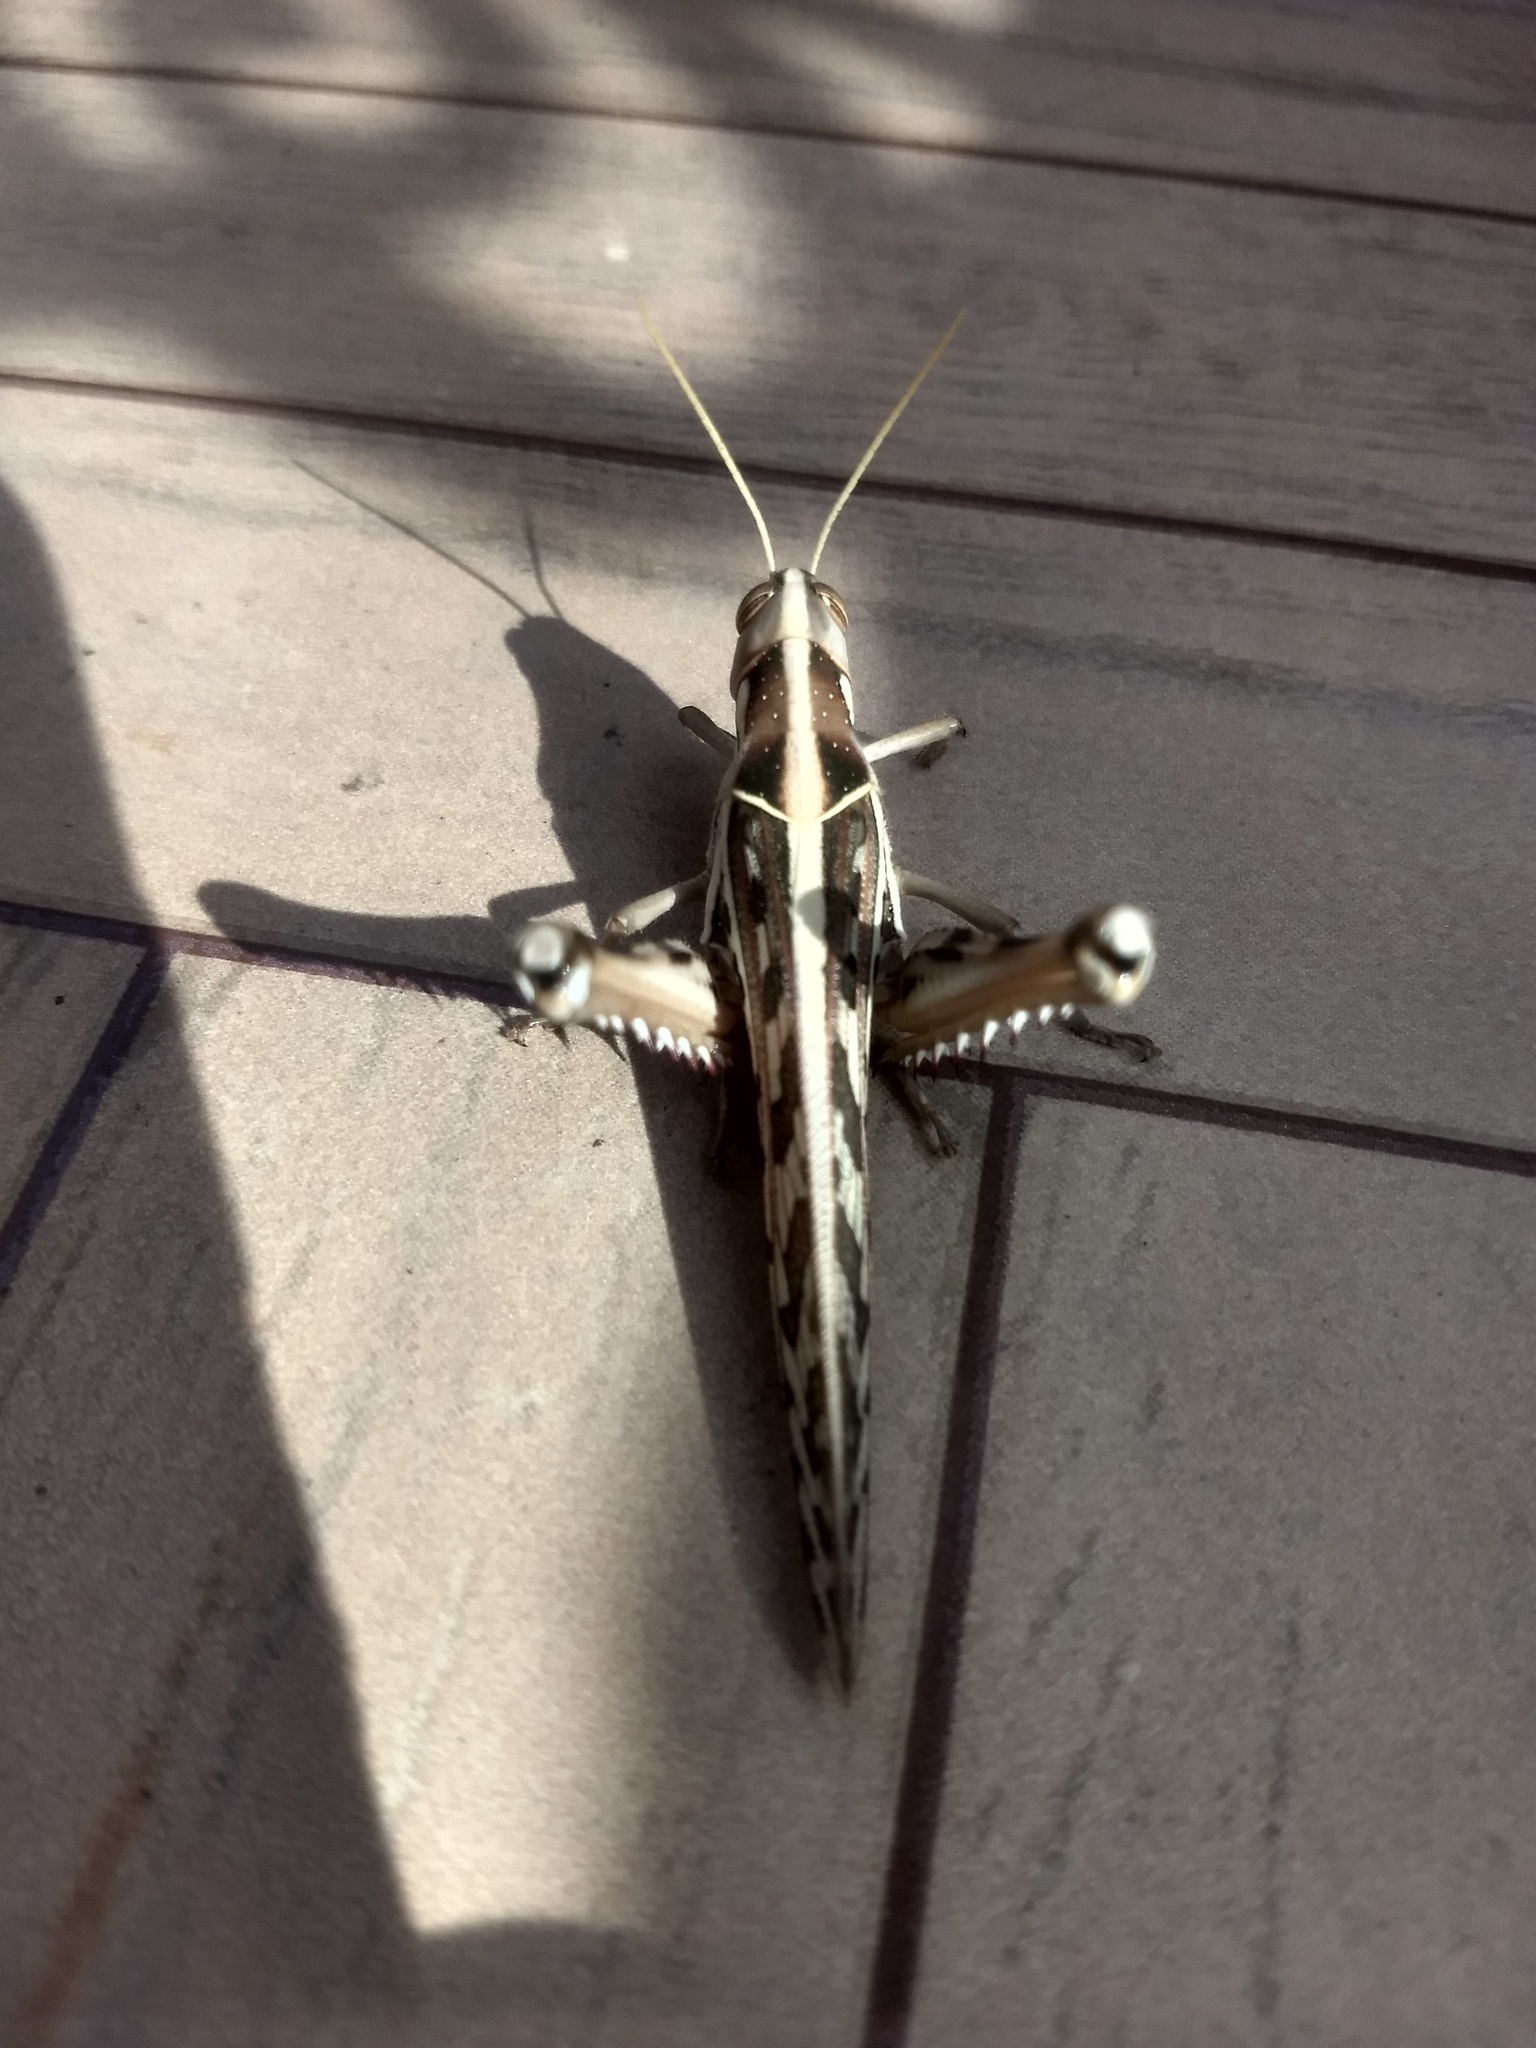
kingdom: Animalia
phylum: Arthropoda
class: Insecta
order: Orthoptera
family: Acrididae
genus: Cyrtacanthacris
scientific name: Cyrtacanthacris tatarica
